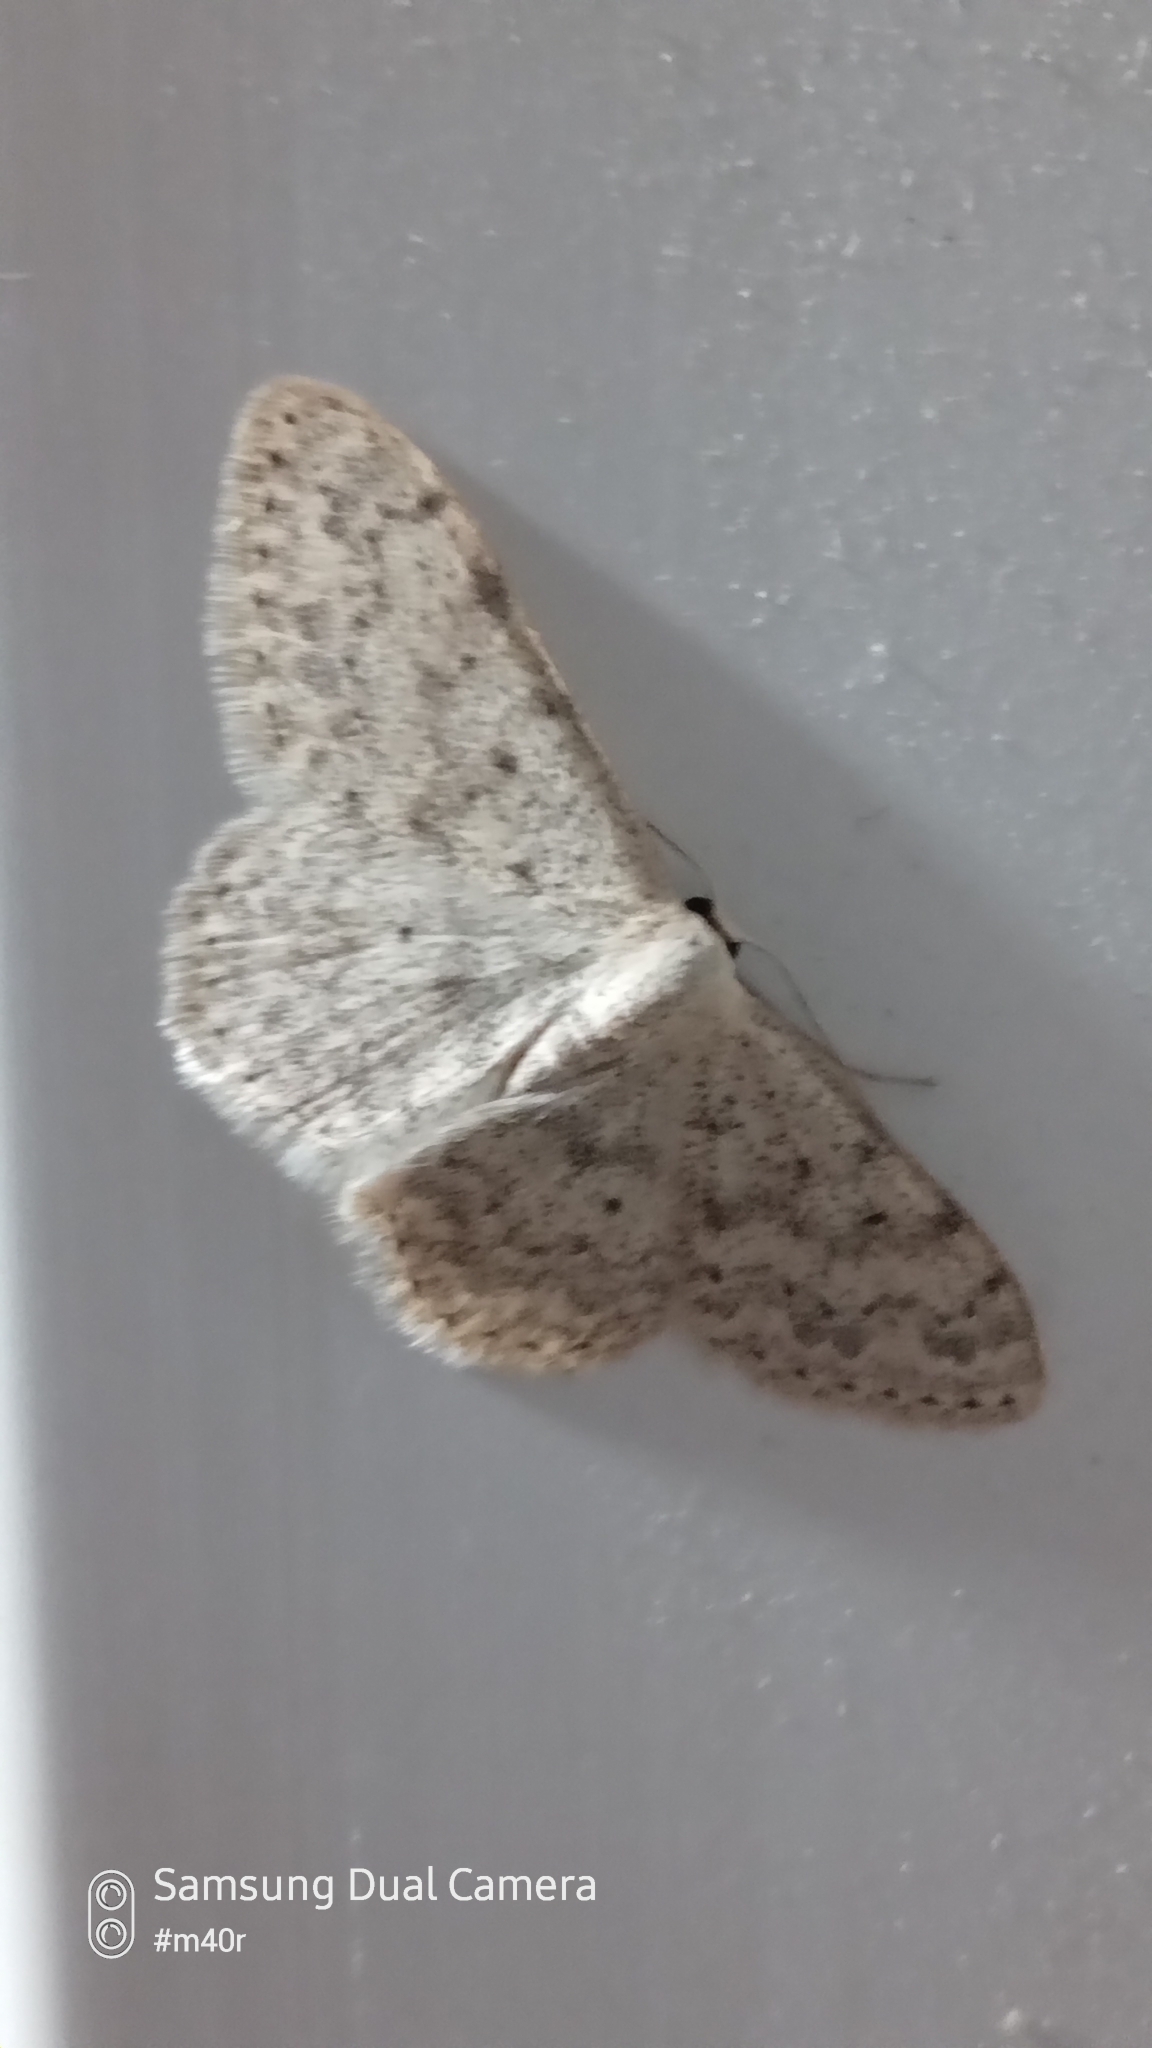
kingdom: Animalia
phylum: Arthropoda
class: Insecta
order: Lepidoptera
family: Geometridae
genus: Scopula
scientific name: Scopula marginepunctata
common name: Mullein wave
